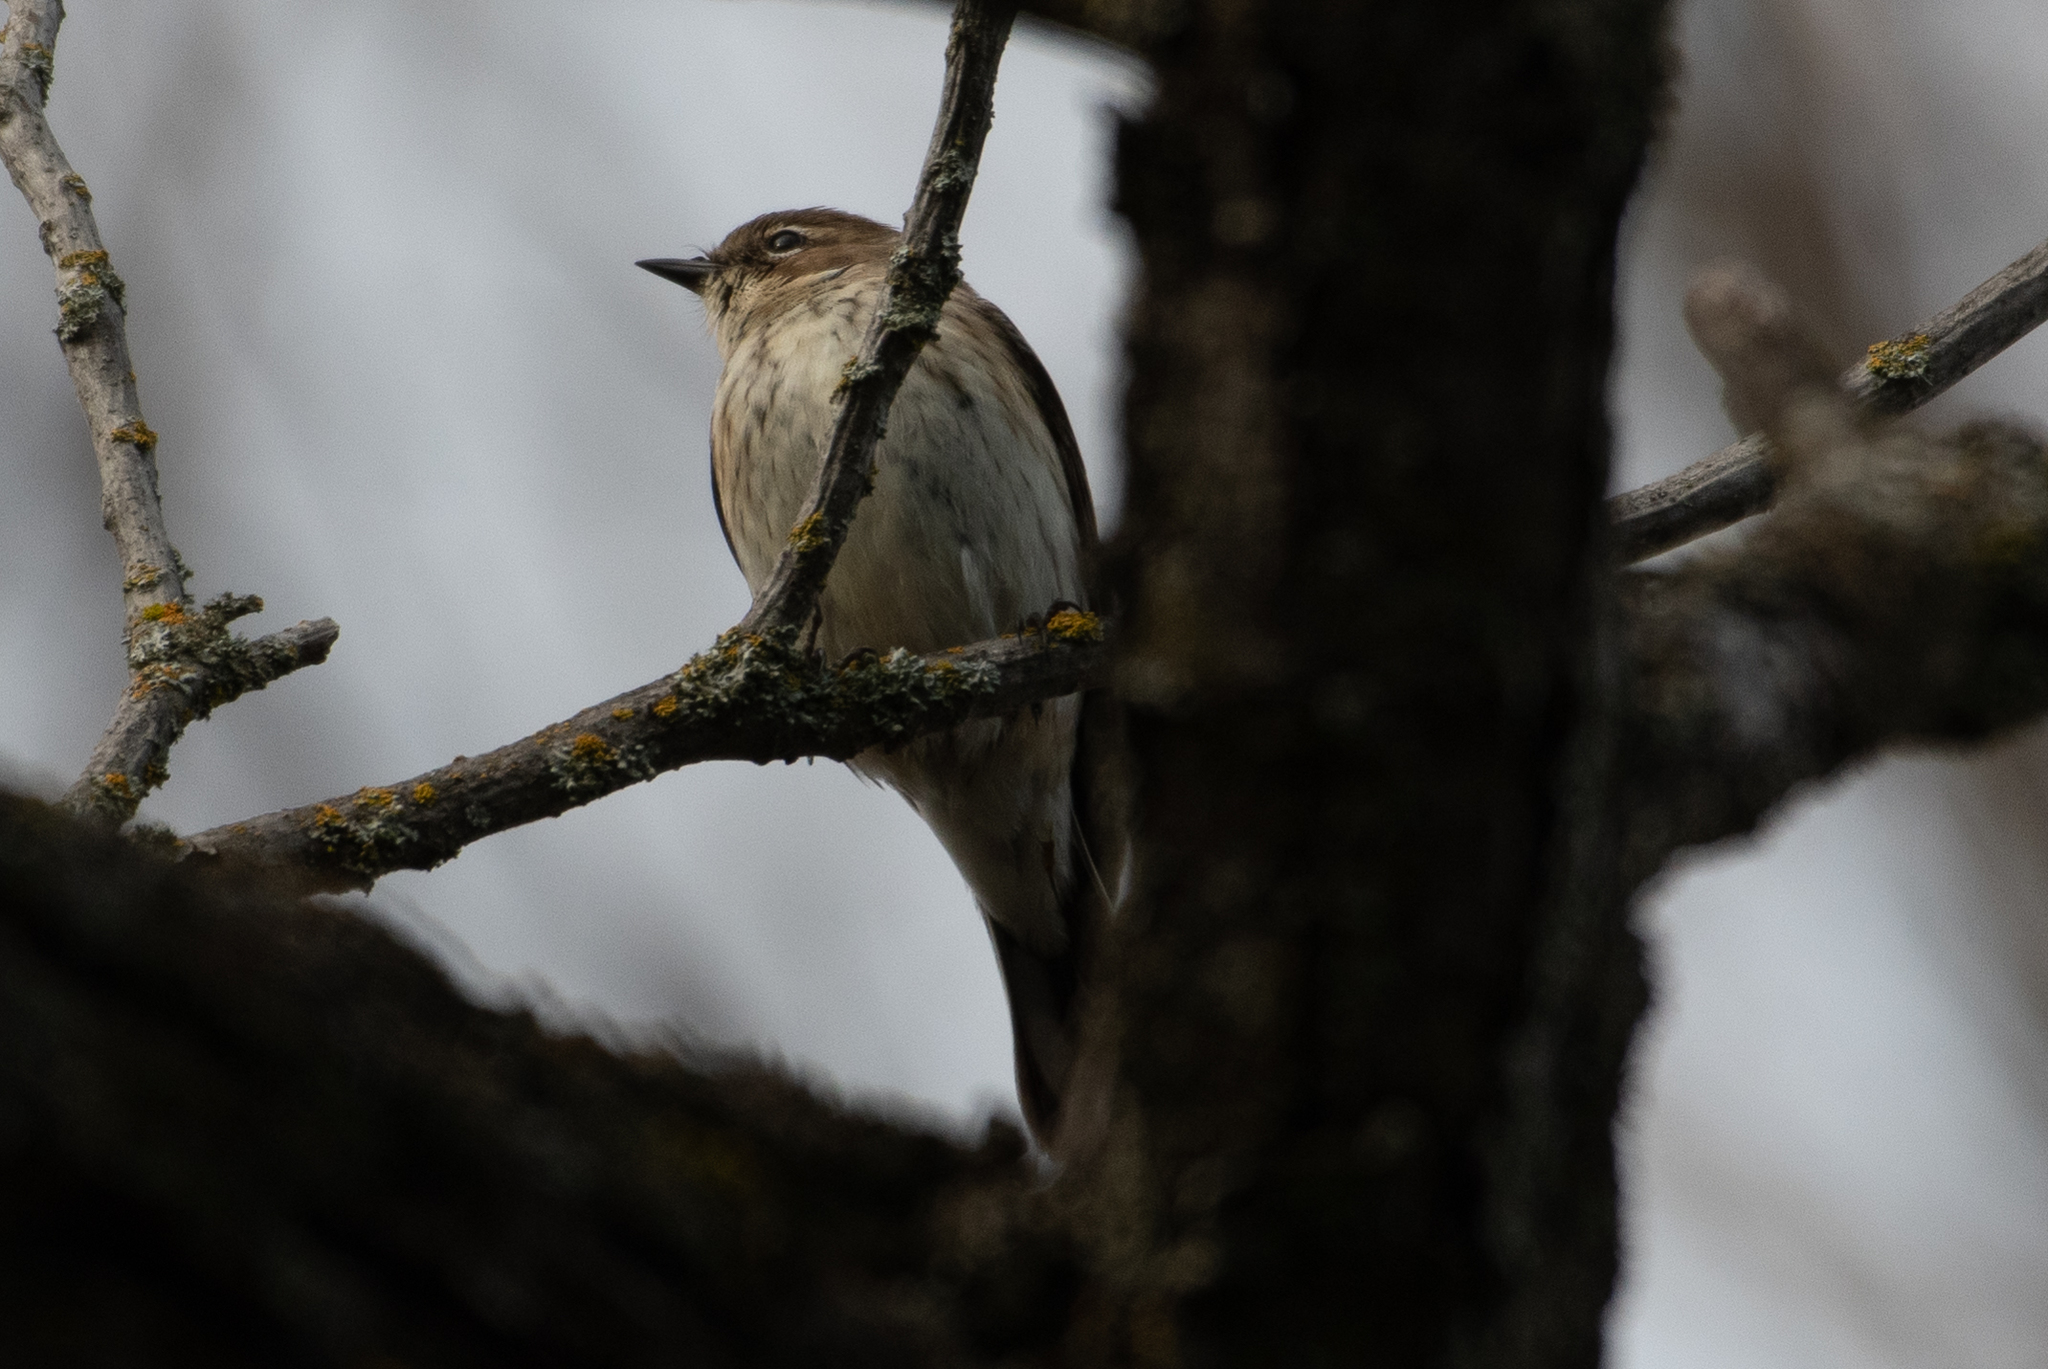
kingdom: Animalia
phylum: Chordata
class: Aves
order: Passeriformes
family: Parulidae
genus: Setophaga
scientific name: Setophaga coronata
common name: Myrtle warbler
